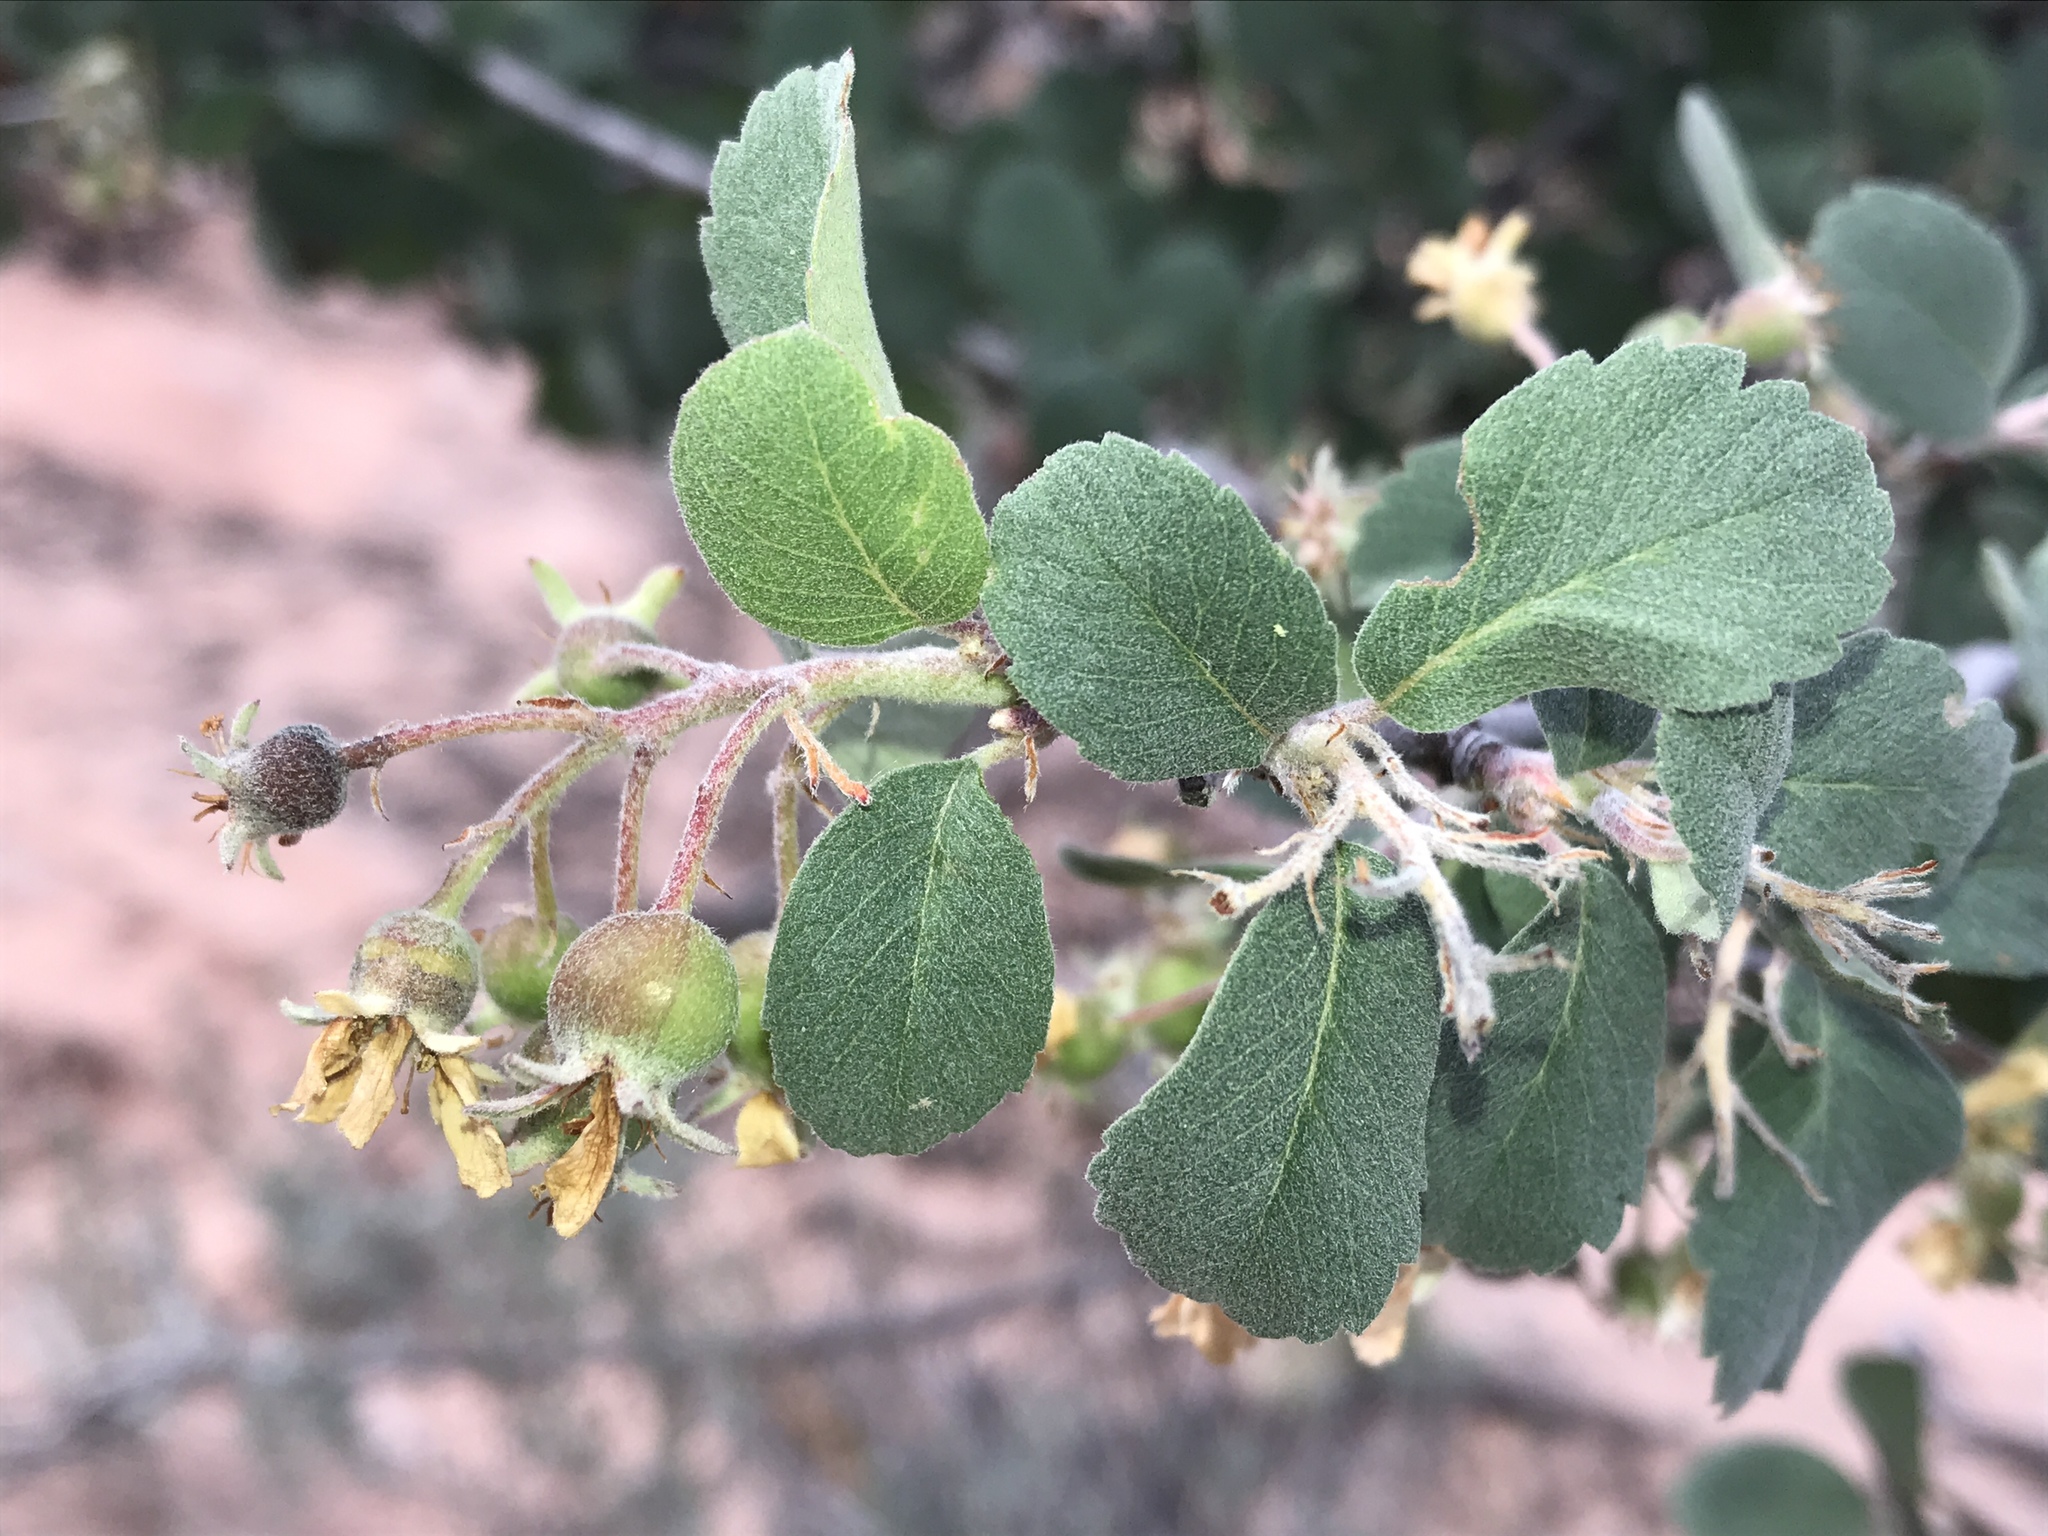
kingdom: Plantae
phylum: Tracheophyta
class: Magnoliopsida
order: Rosales
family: Rosaceae
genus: Amelanchier
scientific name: Amelanchier utahensis
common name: Utah serviceberry
